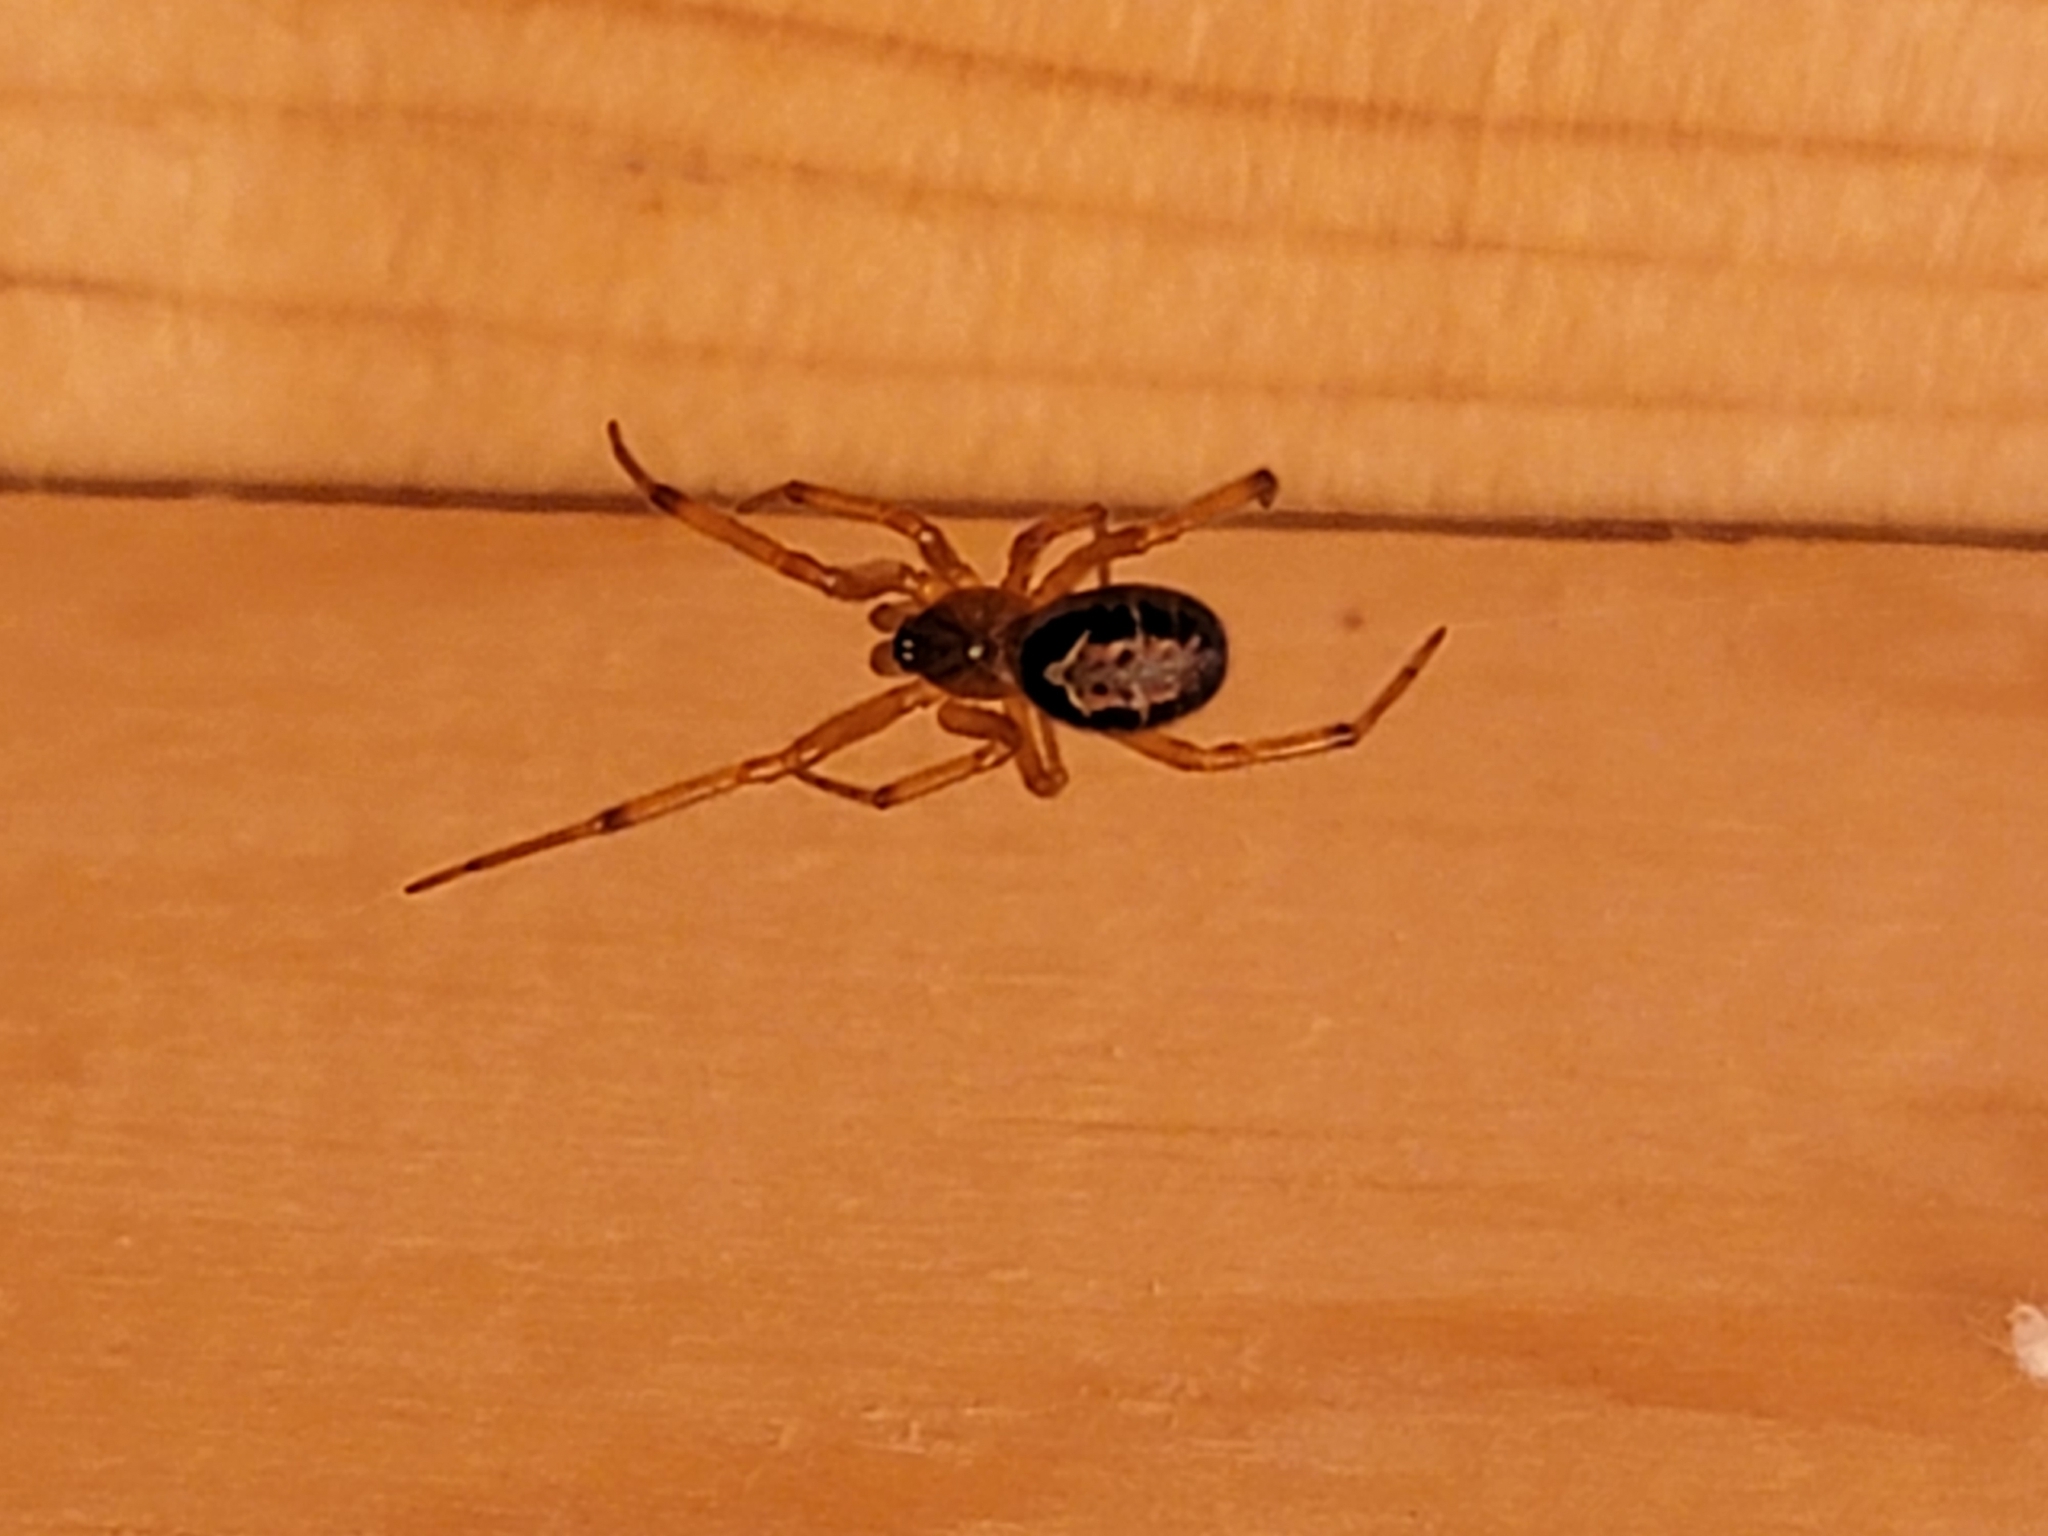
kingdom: Animalia
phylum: Arthropoda
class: Arachnida
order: Araneae
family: Theridiidae
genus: Steatoda
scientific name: Steatoda nobilis
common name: Cobweb weaver
